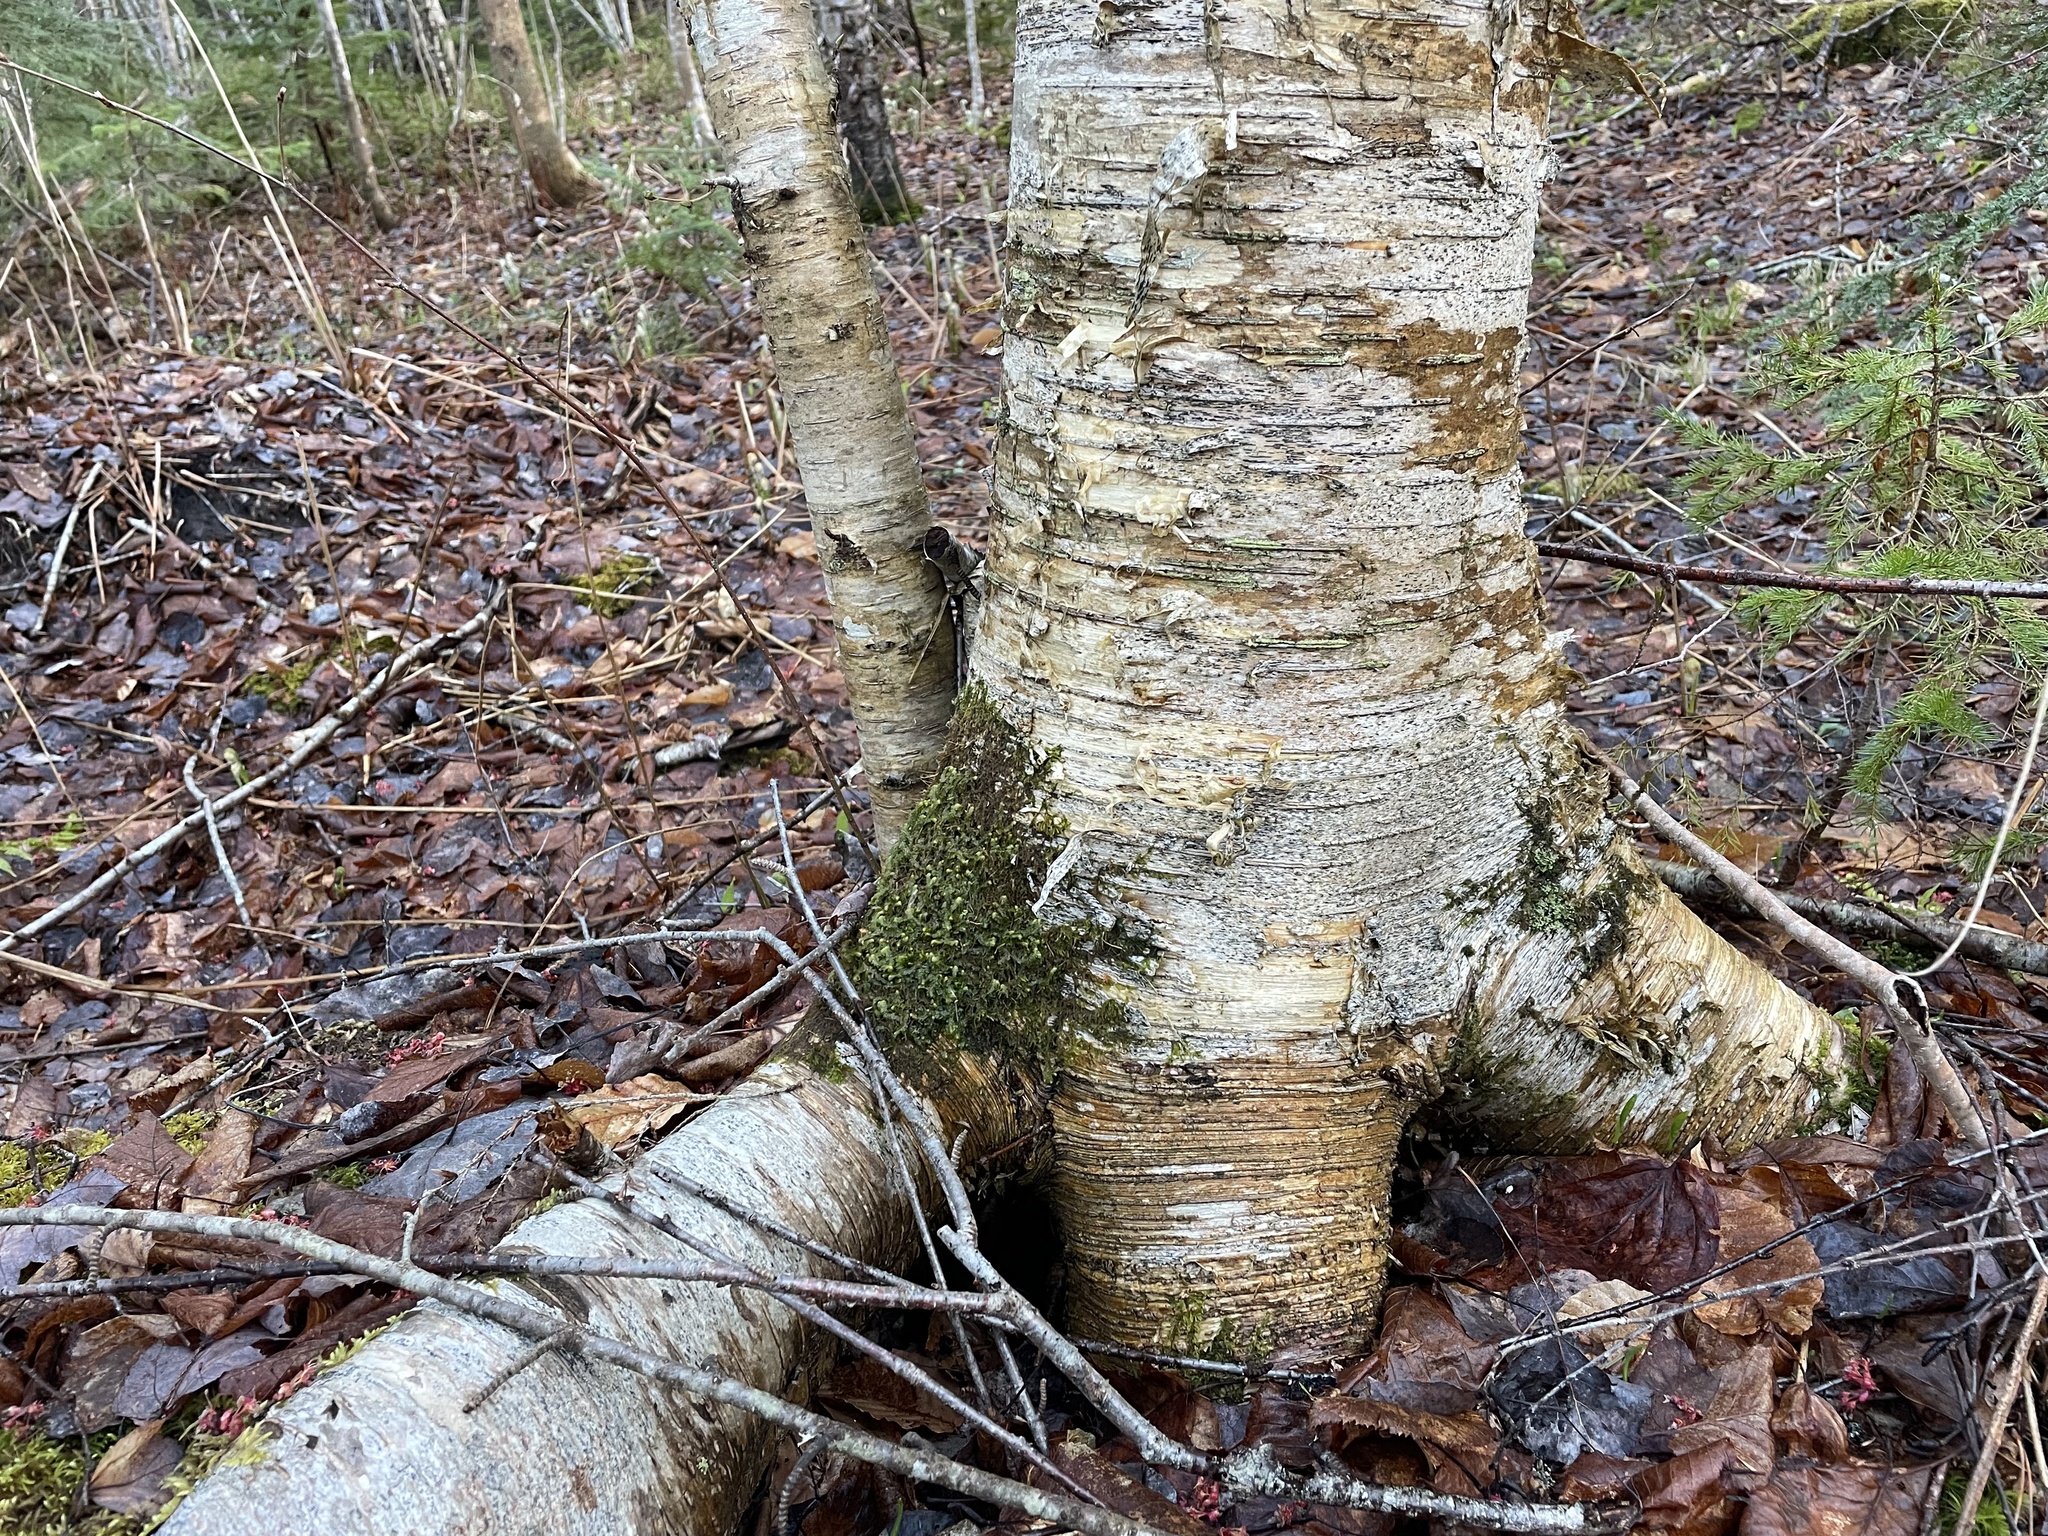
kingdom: Plantae
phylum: Tracheophyta
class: Magnoliopsida
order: Fagales
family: Betulaceae
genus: Betula
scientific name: Betula alleghaniensis
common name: Yellow birch
